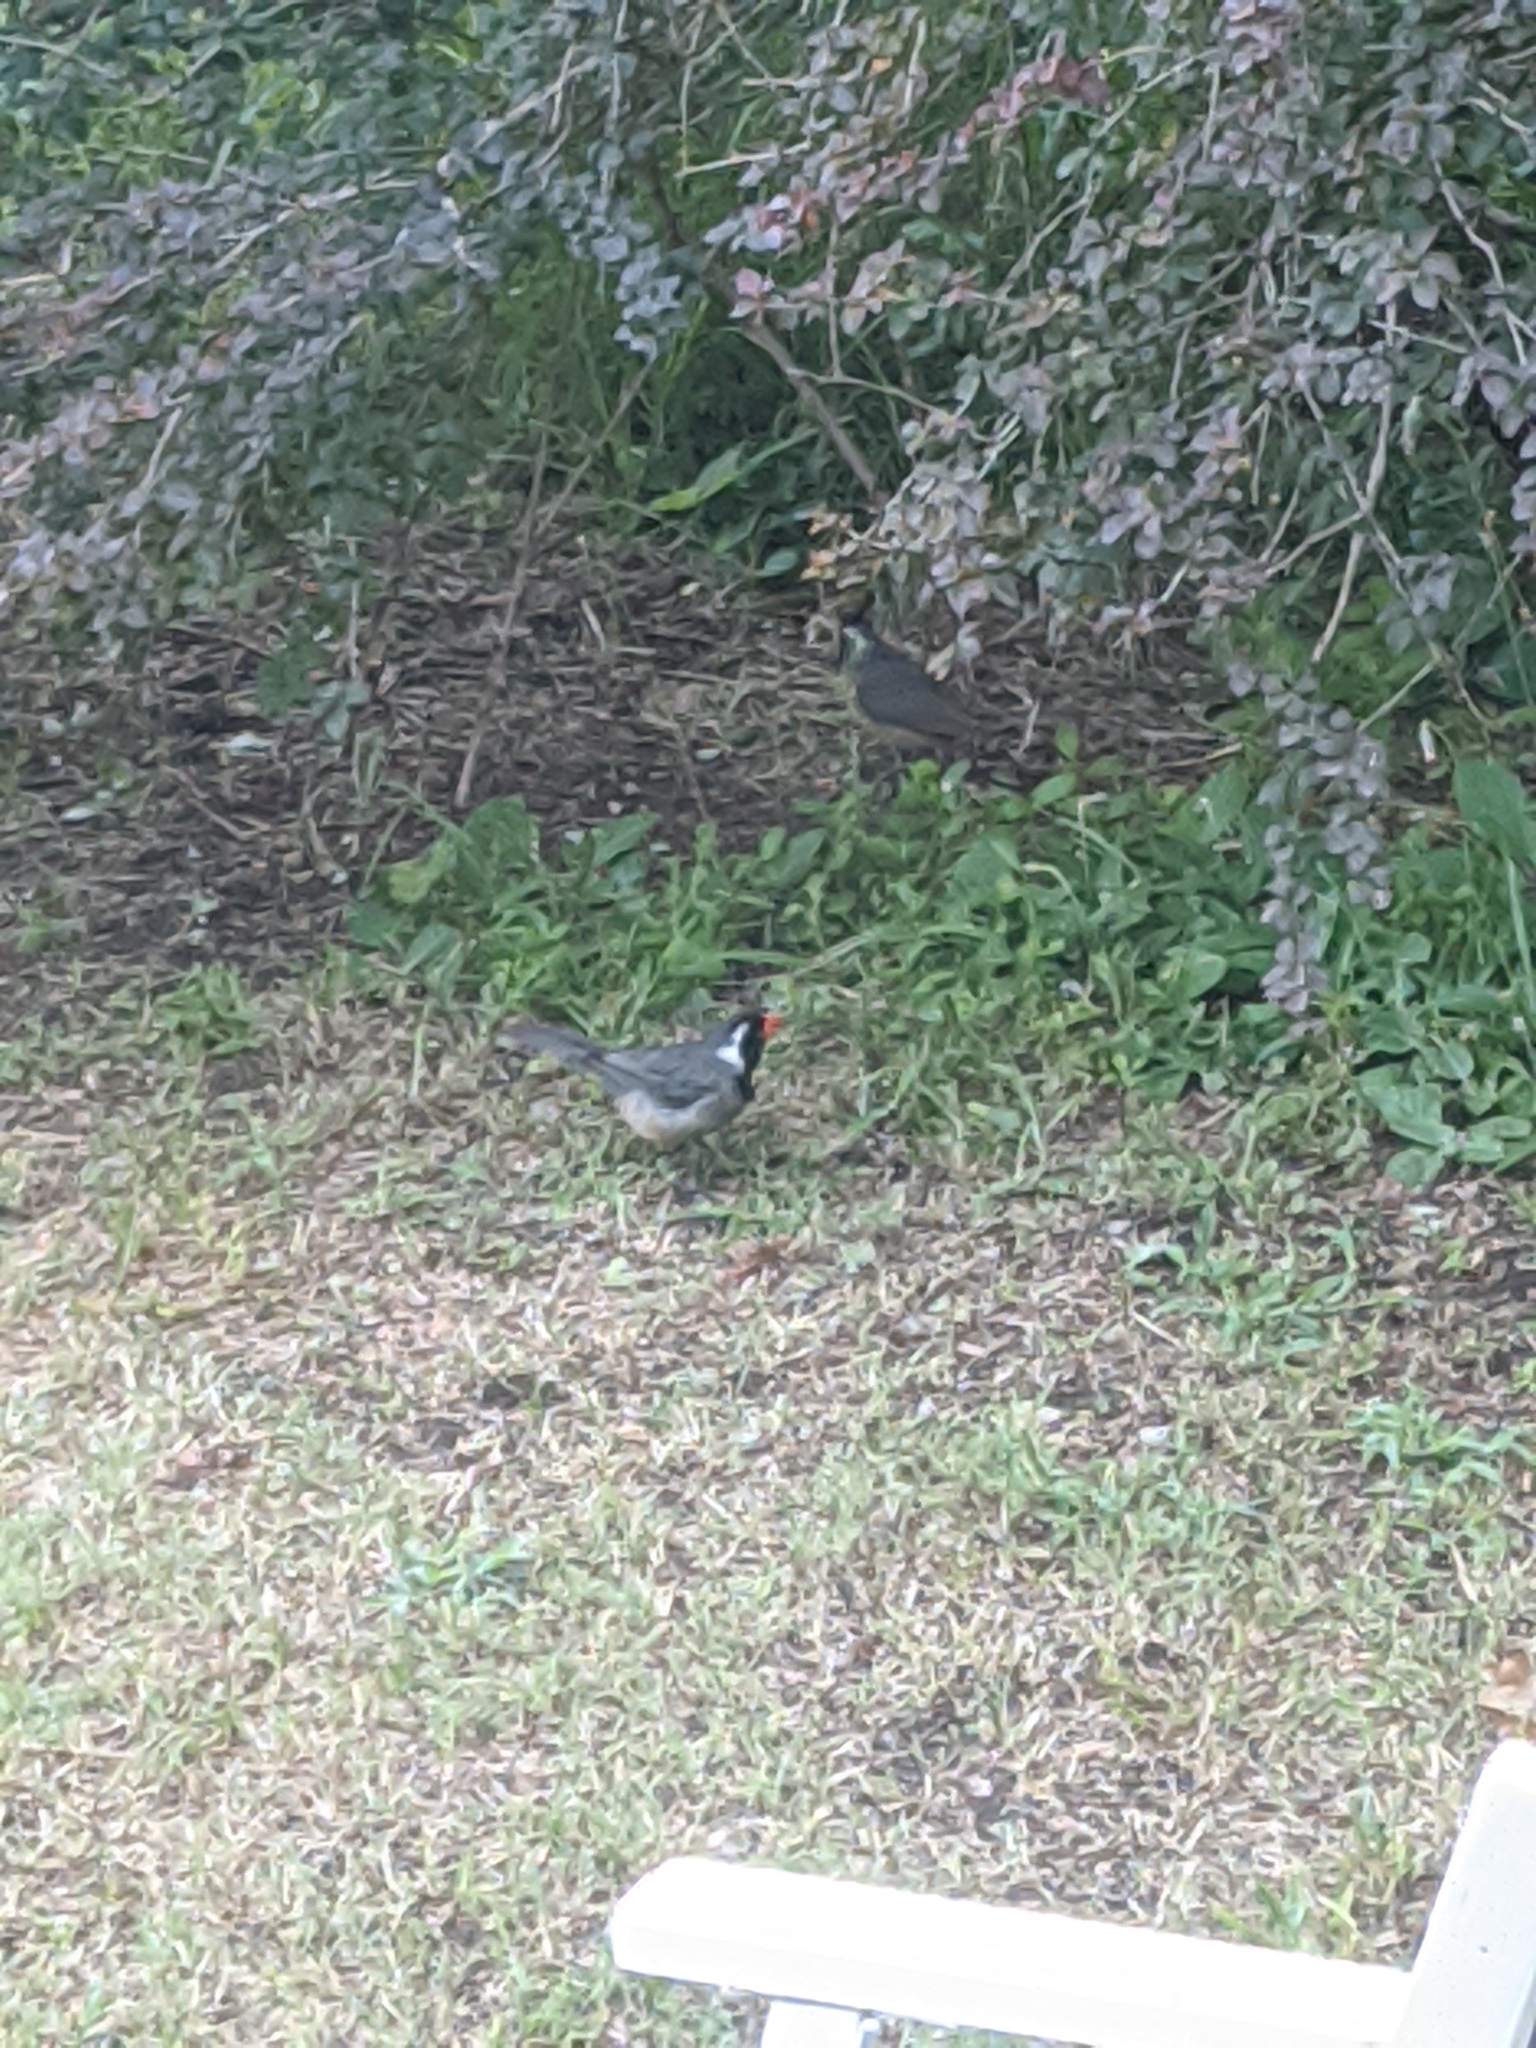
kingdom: Animalia
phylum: Chordata
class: Aves
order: Passeriformes
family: Thraupidae
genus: Saltator
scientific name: Saltator aurantiirostris
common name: Golden-billed saltator
